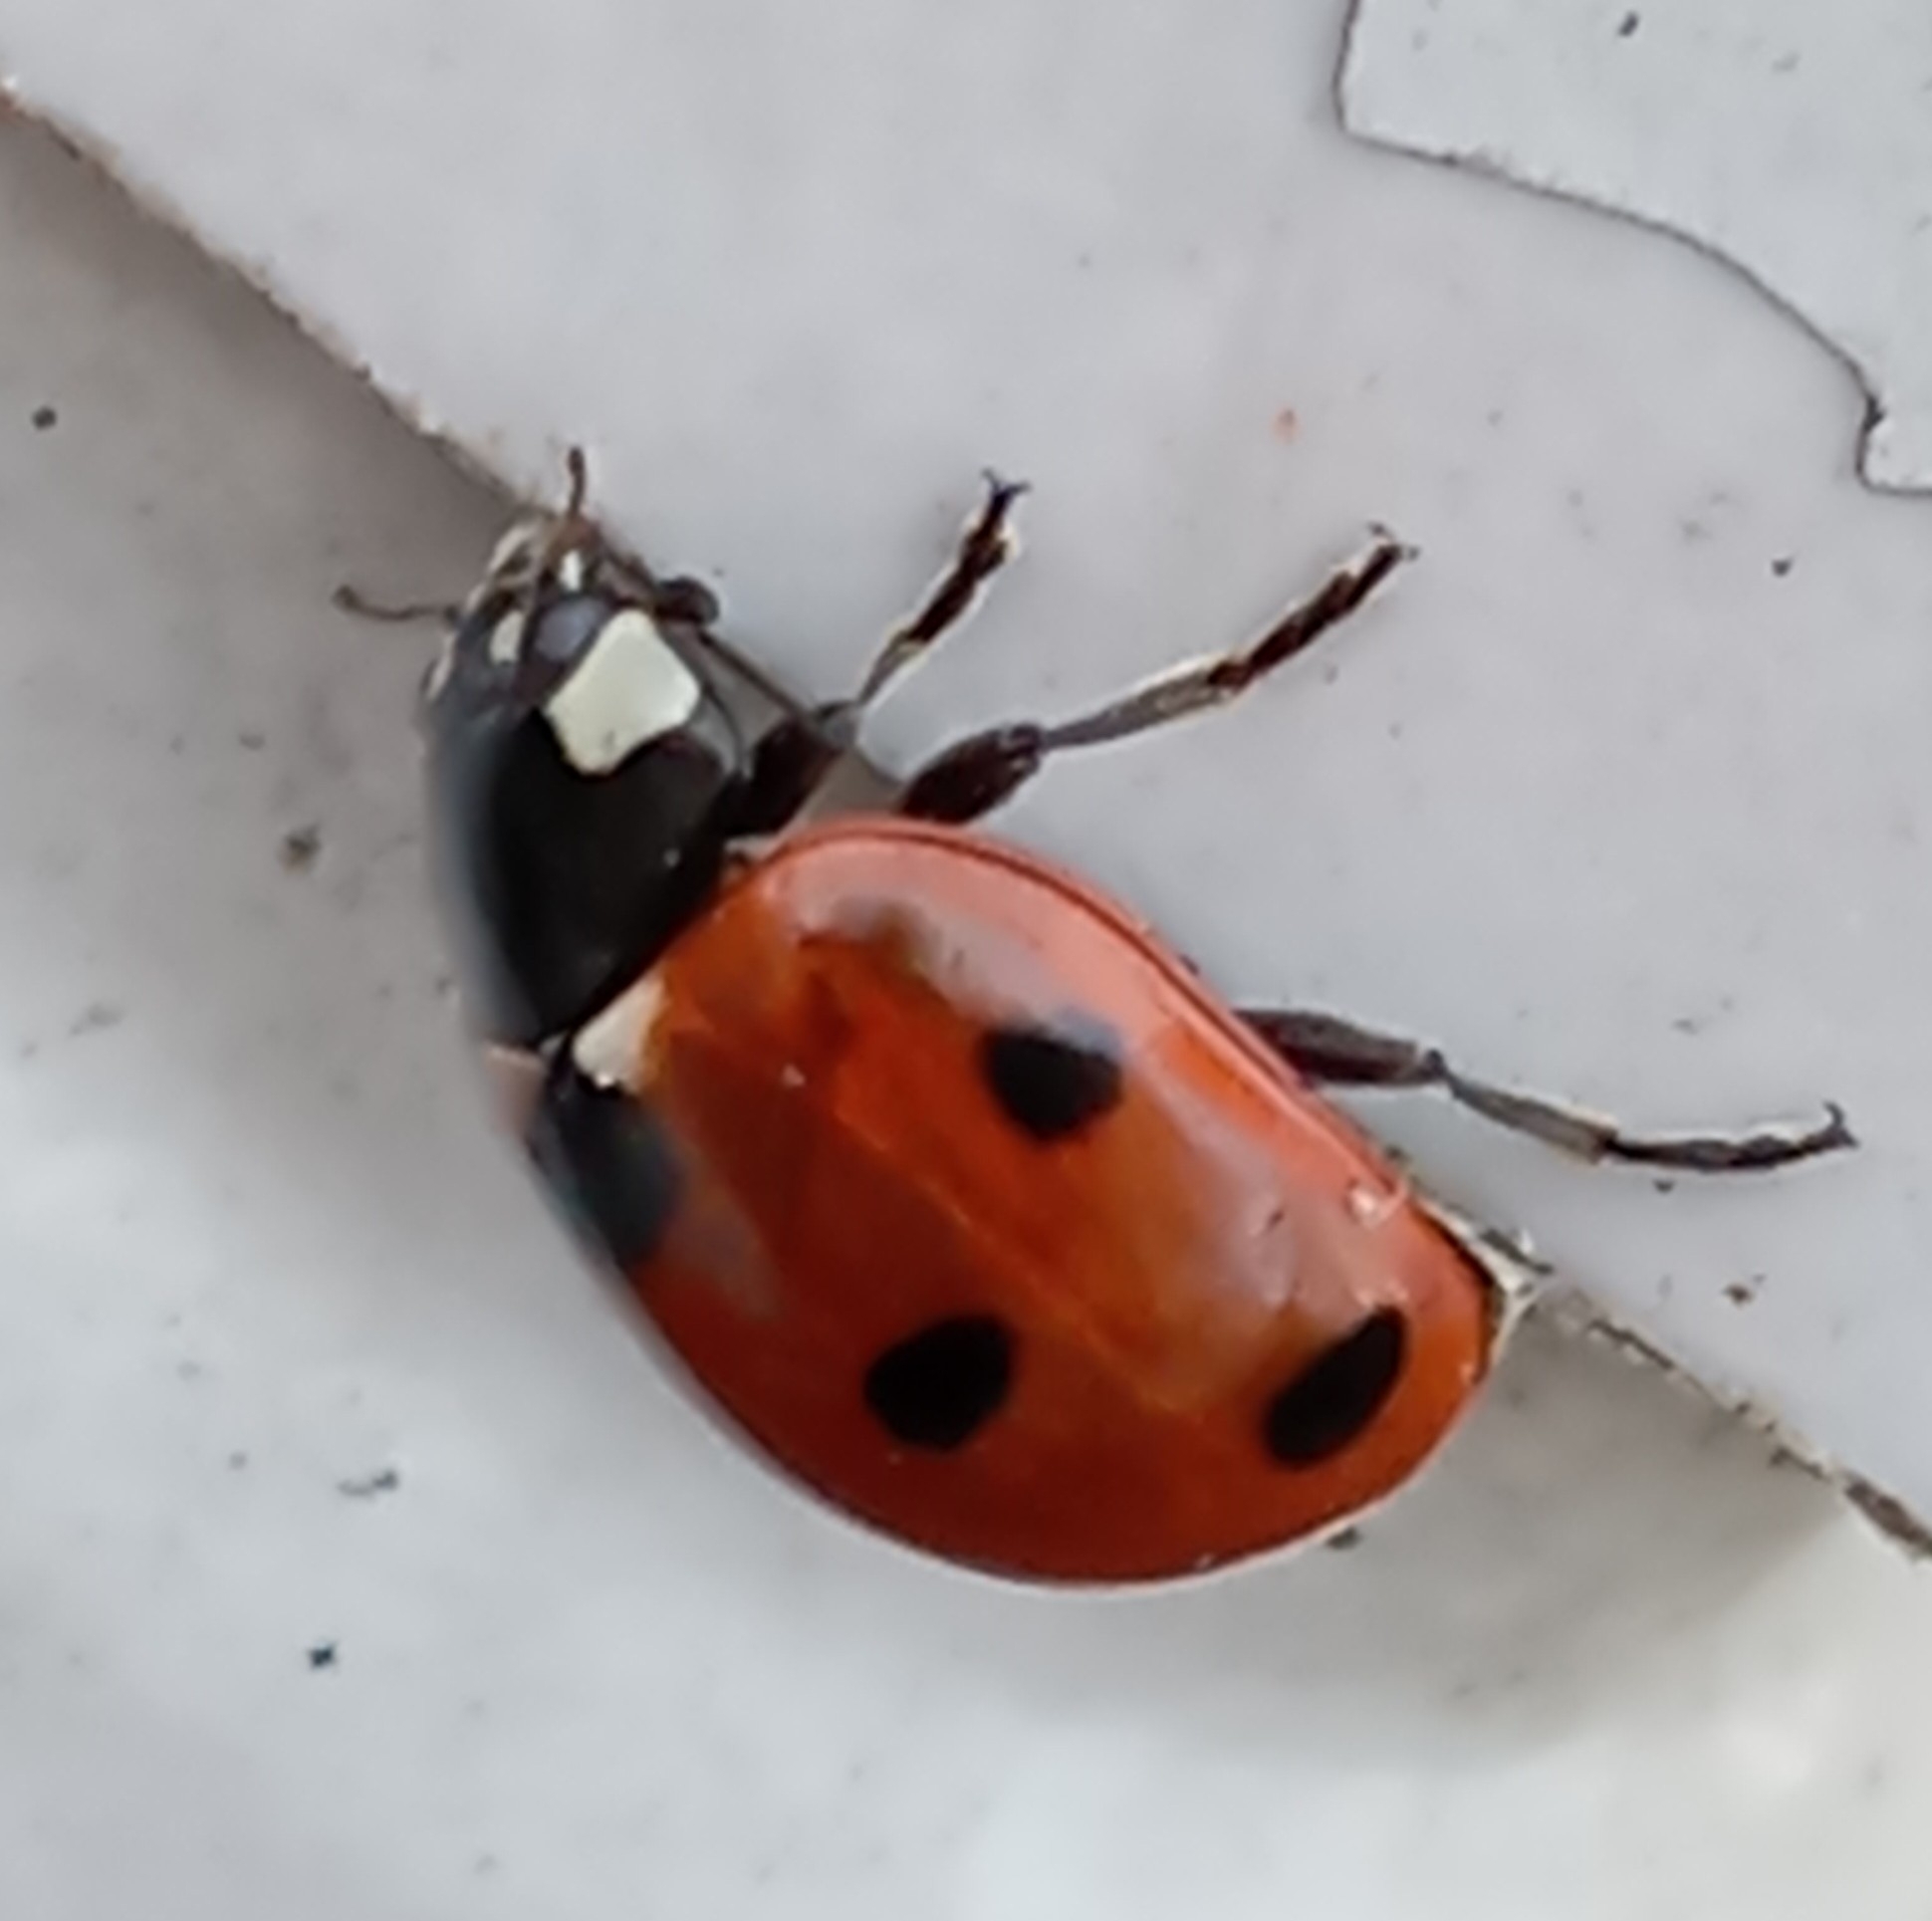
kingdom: Animalia
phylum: Arthropoda
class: Insecta
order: Coleoptera
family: Coccinellidae
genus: Coccinella
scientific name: Coccinella septempunctata
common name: Sevenspotted lady beetle
